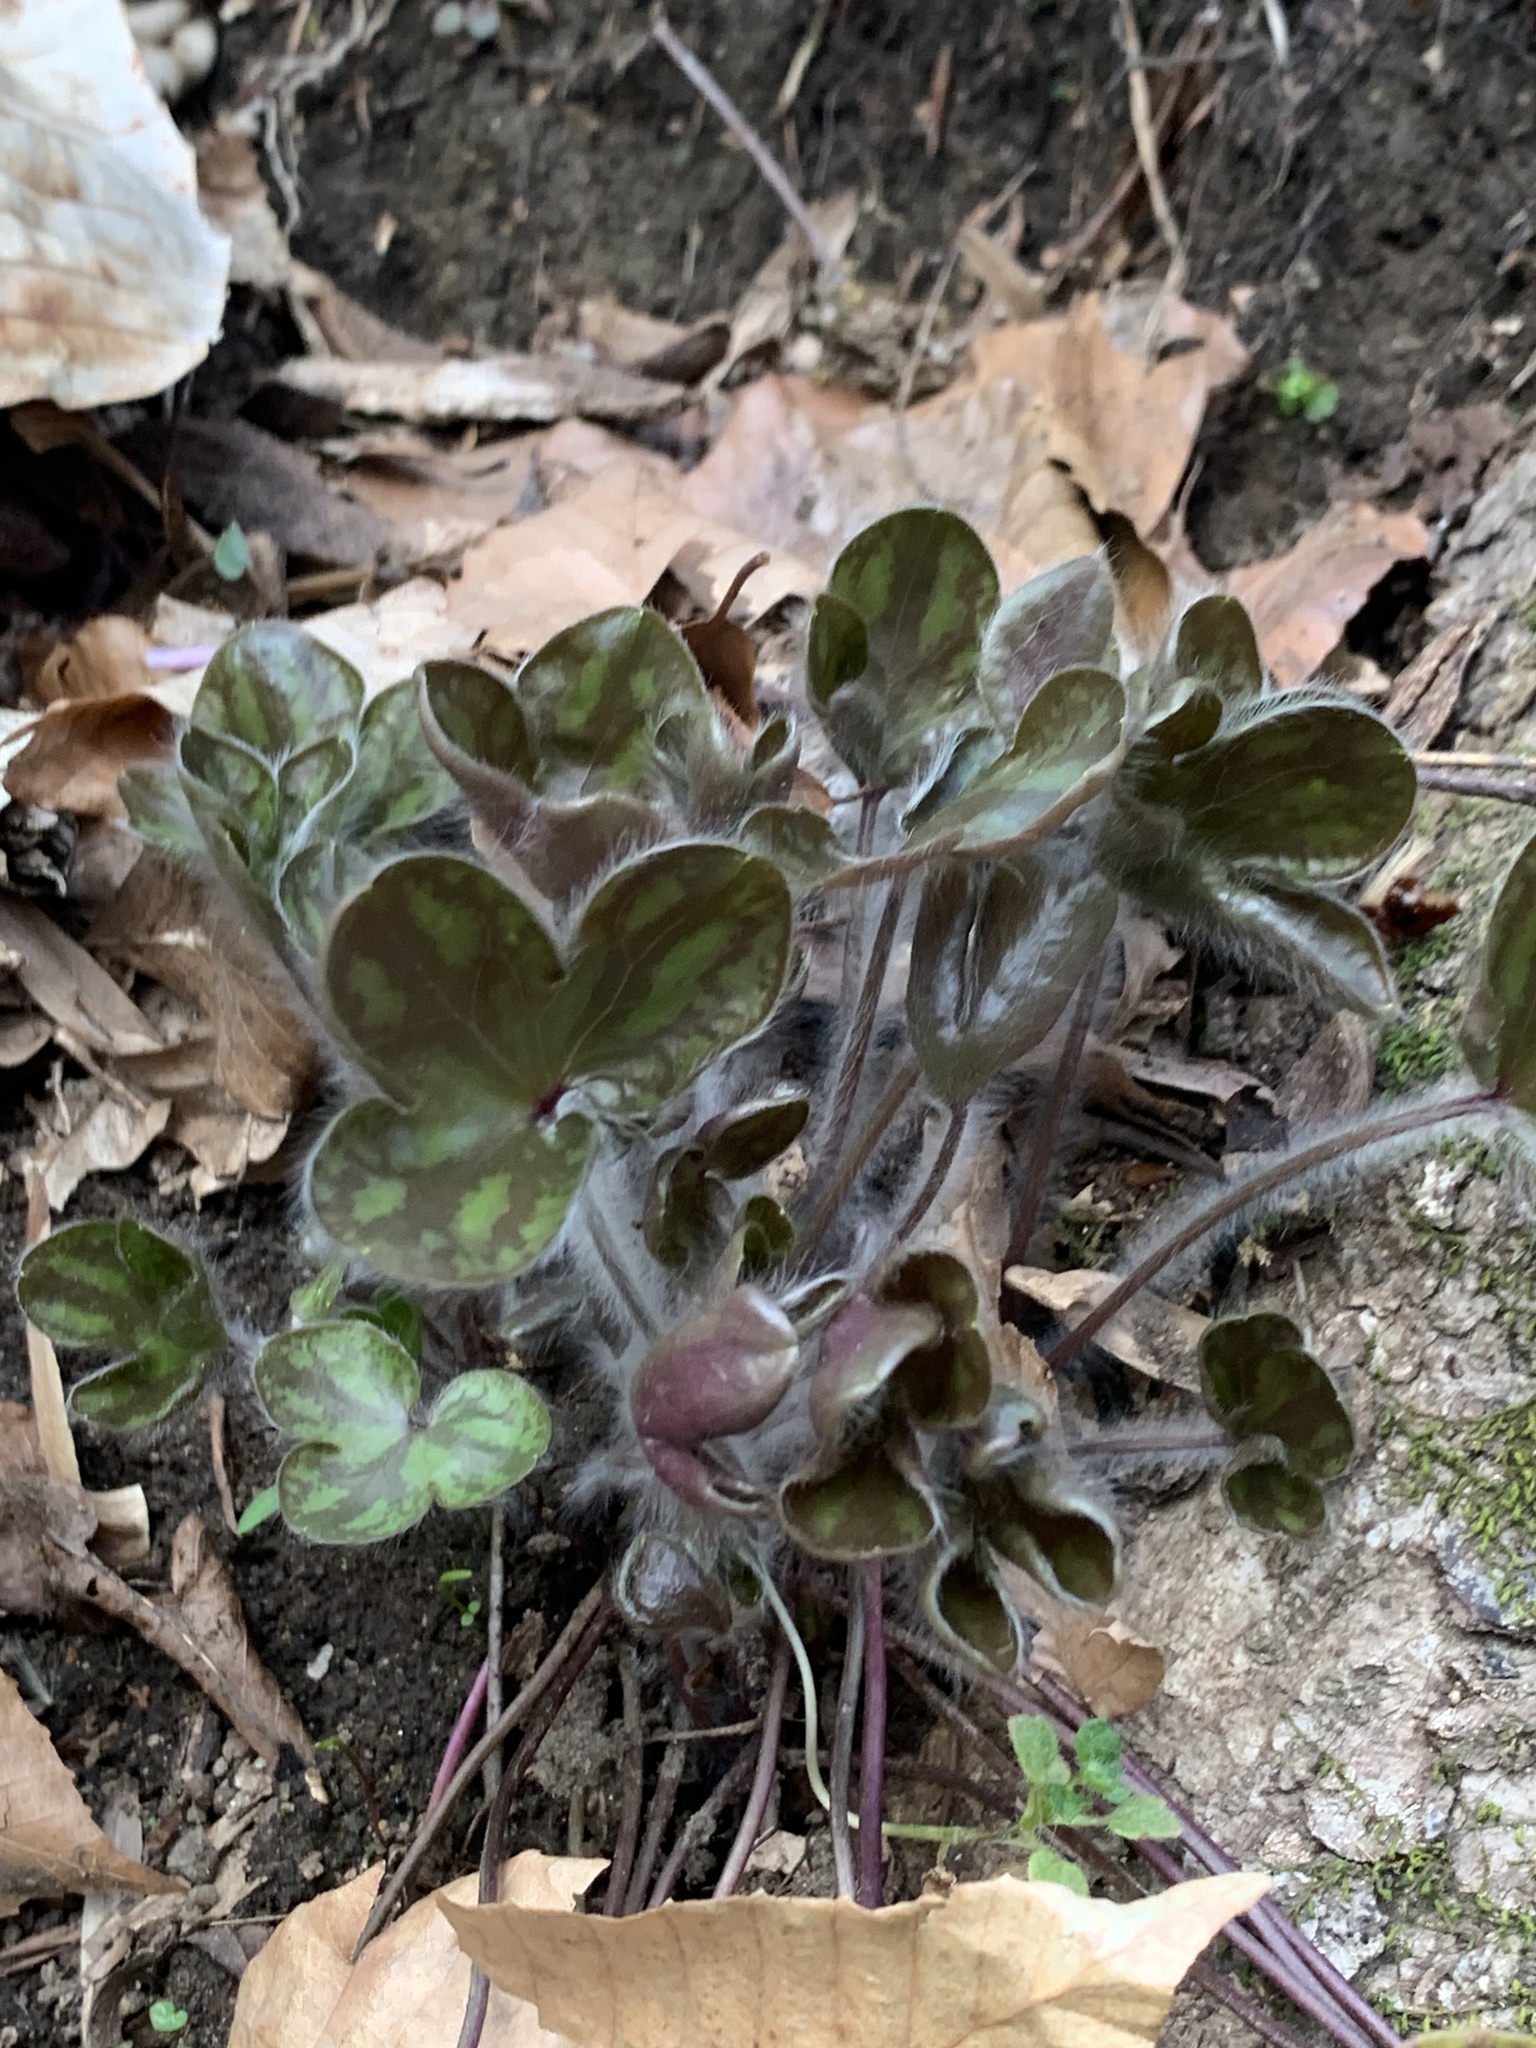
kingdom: Plantae
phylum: Tracheophyta
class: Magnoliopsida
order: Ranunculales
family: Ranunculaceae
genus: Hepatica
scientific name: Hepatica americana
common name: American hepatica
